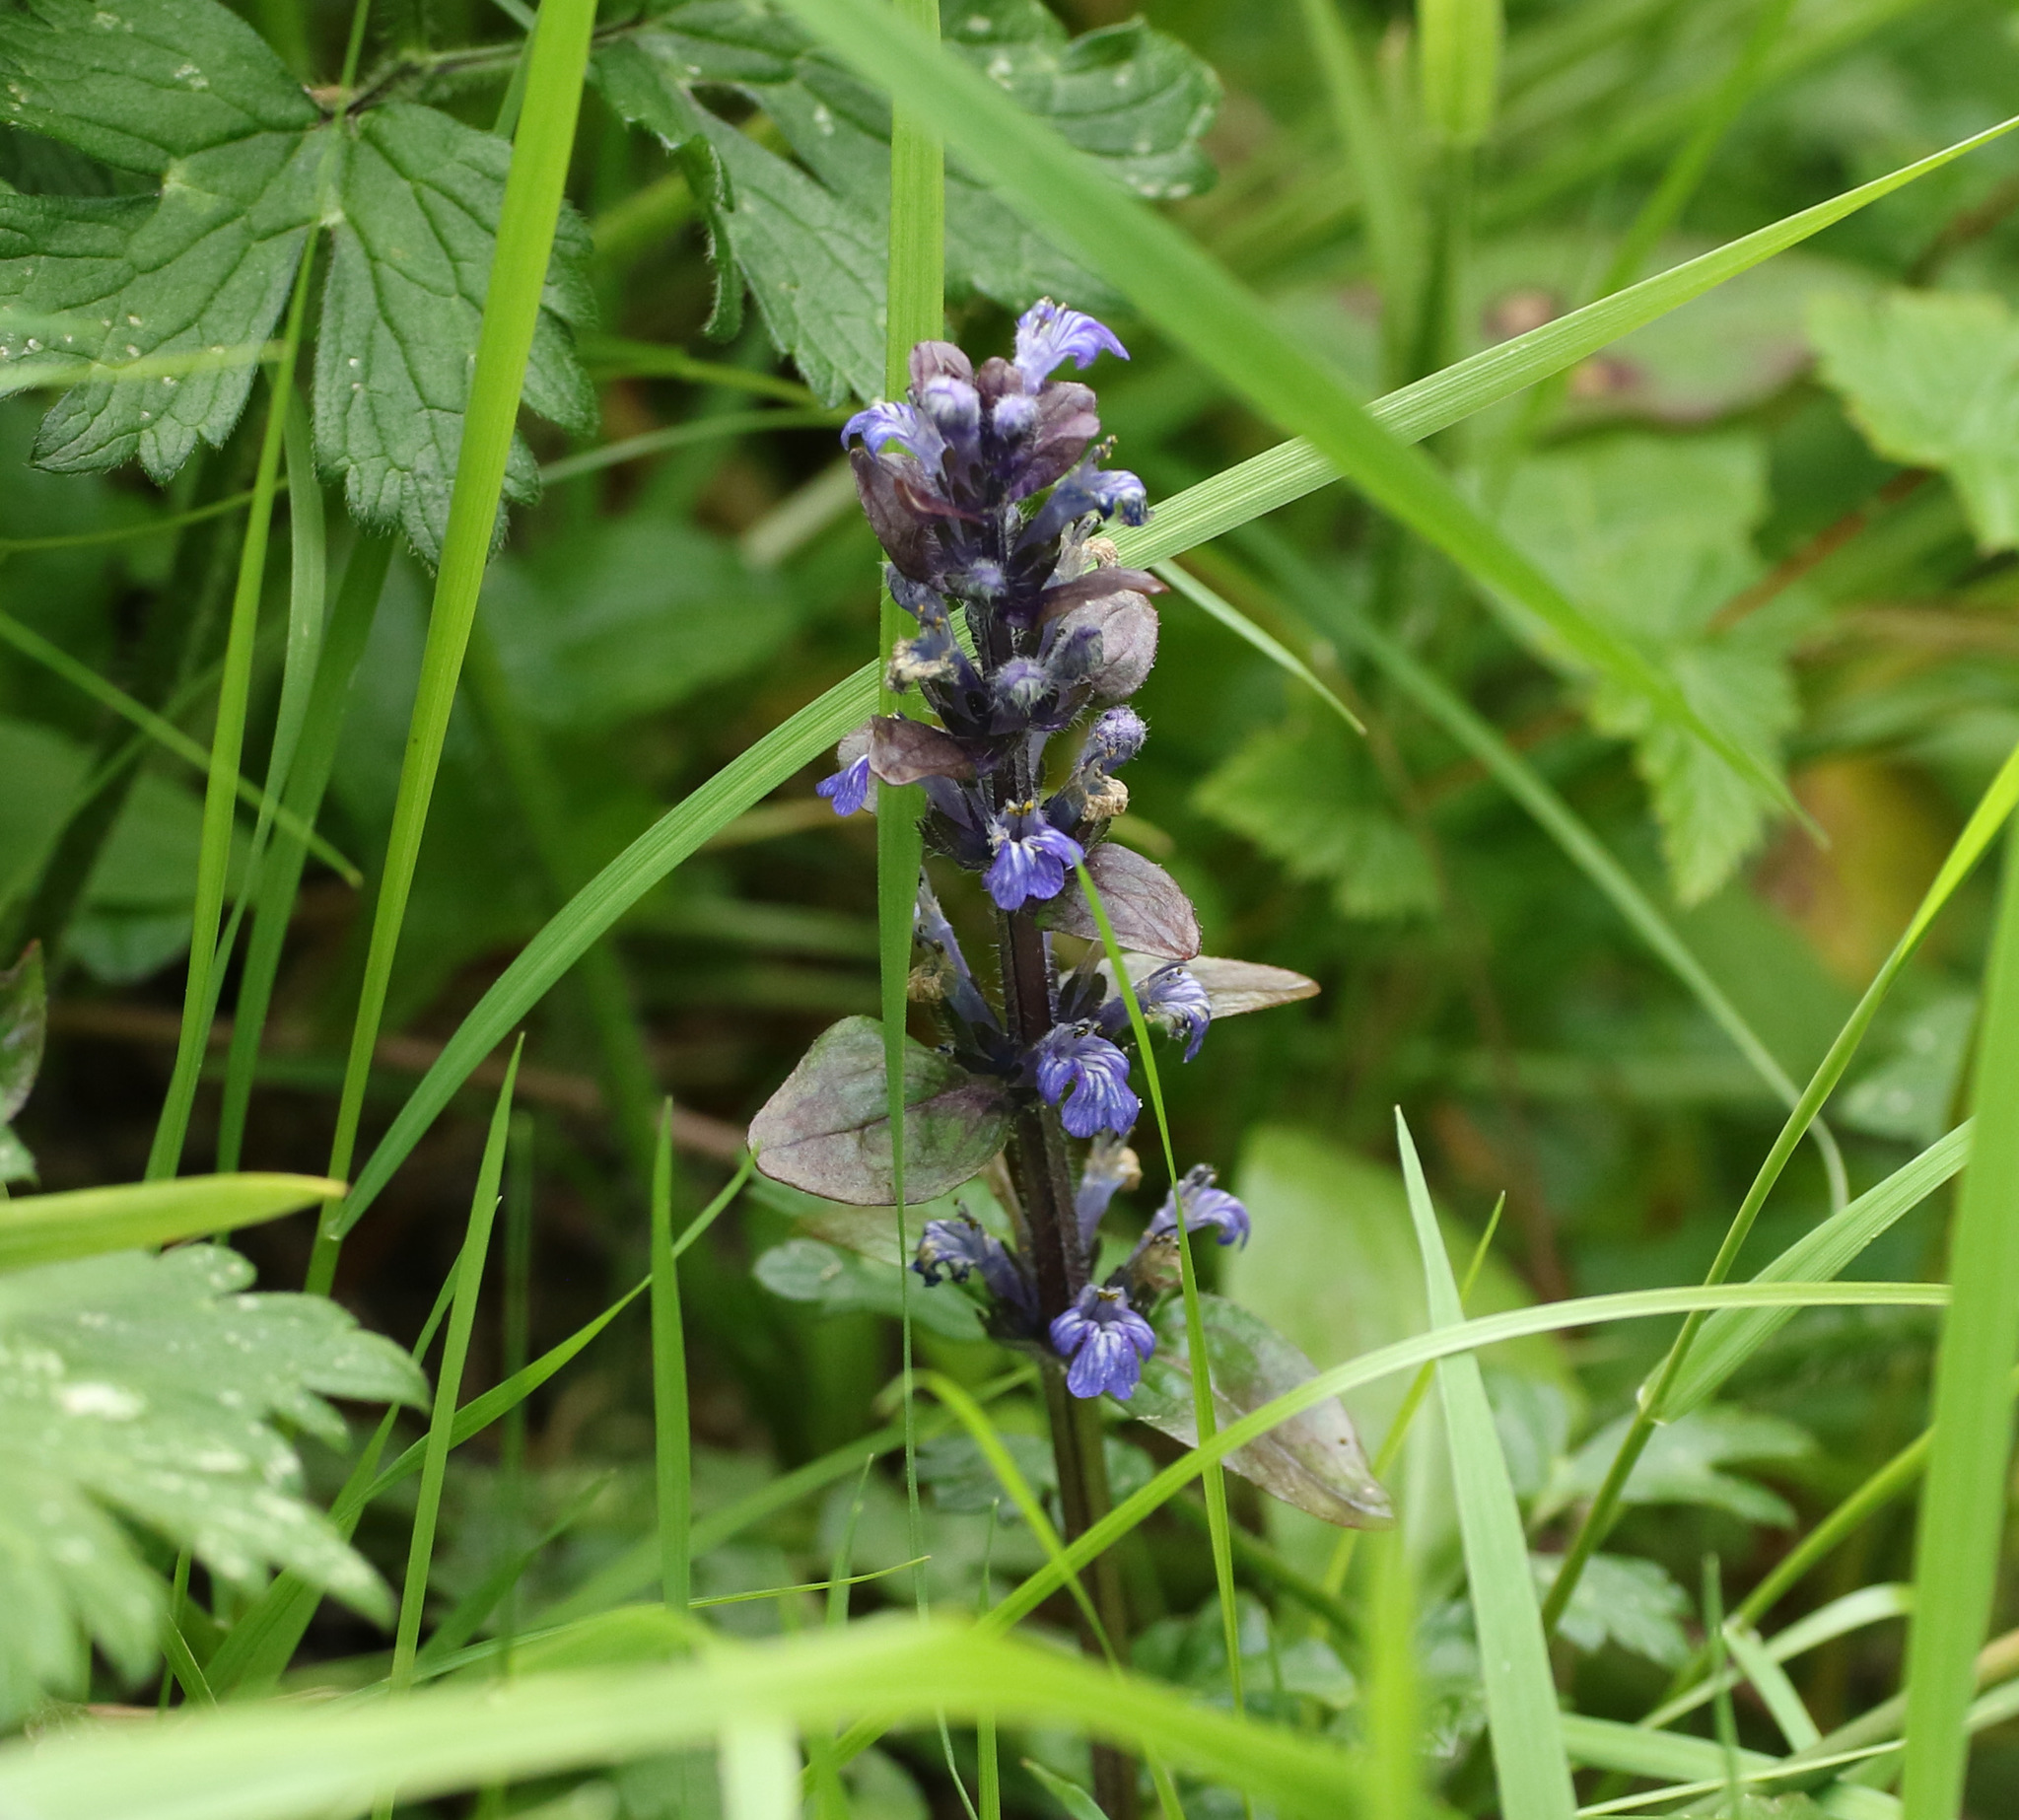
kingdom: Plantae
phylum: Tracheophyta
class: Magnoliopsida
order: Lamiales
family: Lamiaceae
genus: Ajuga
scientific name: Ajuga reptans
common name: Bugle
